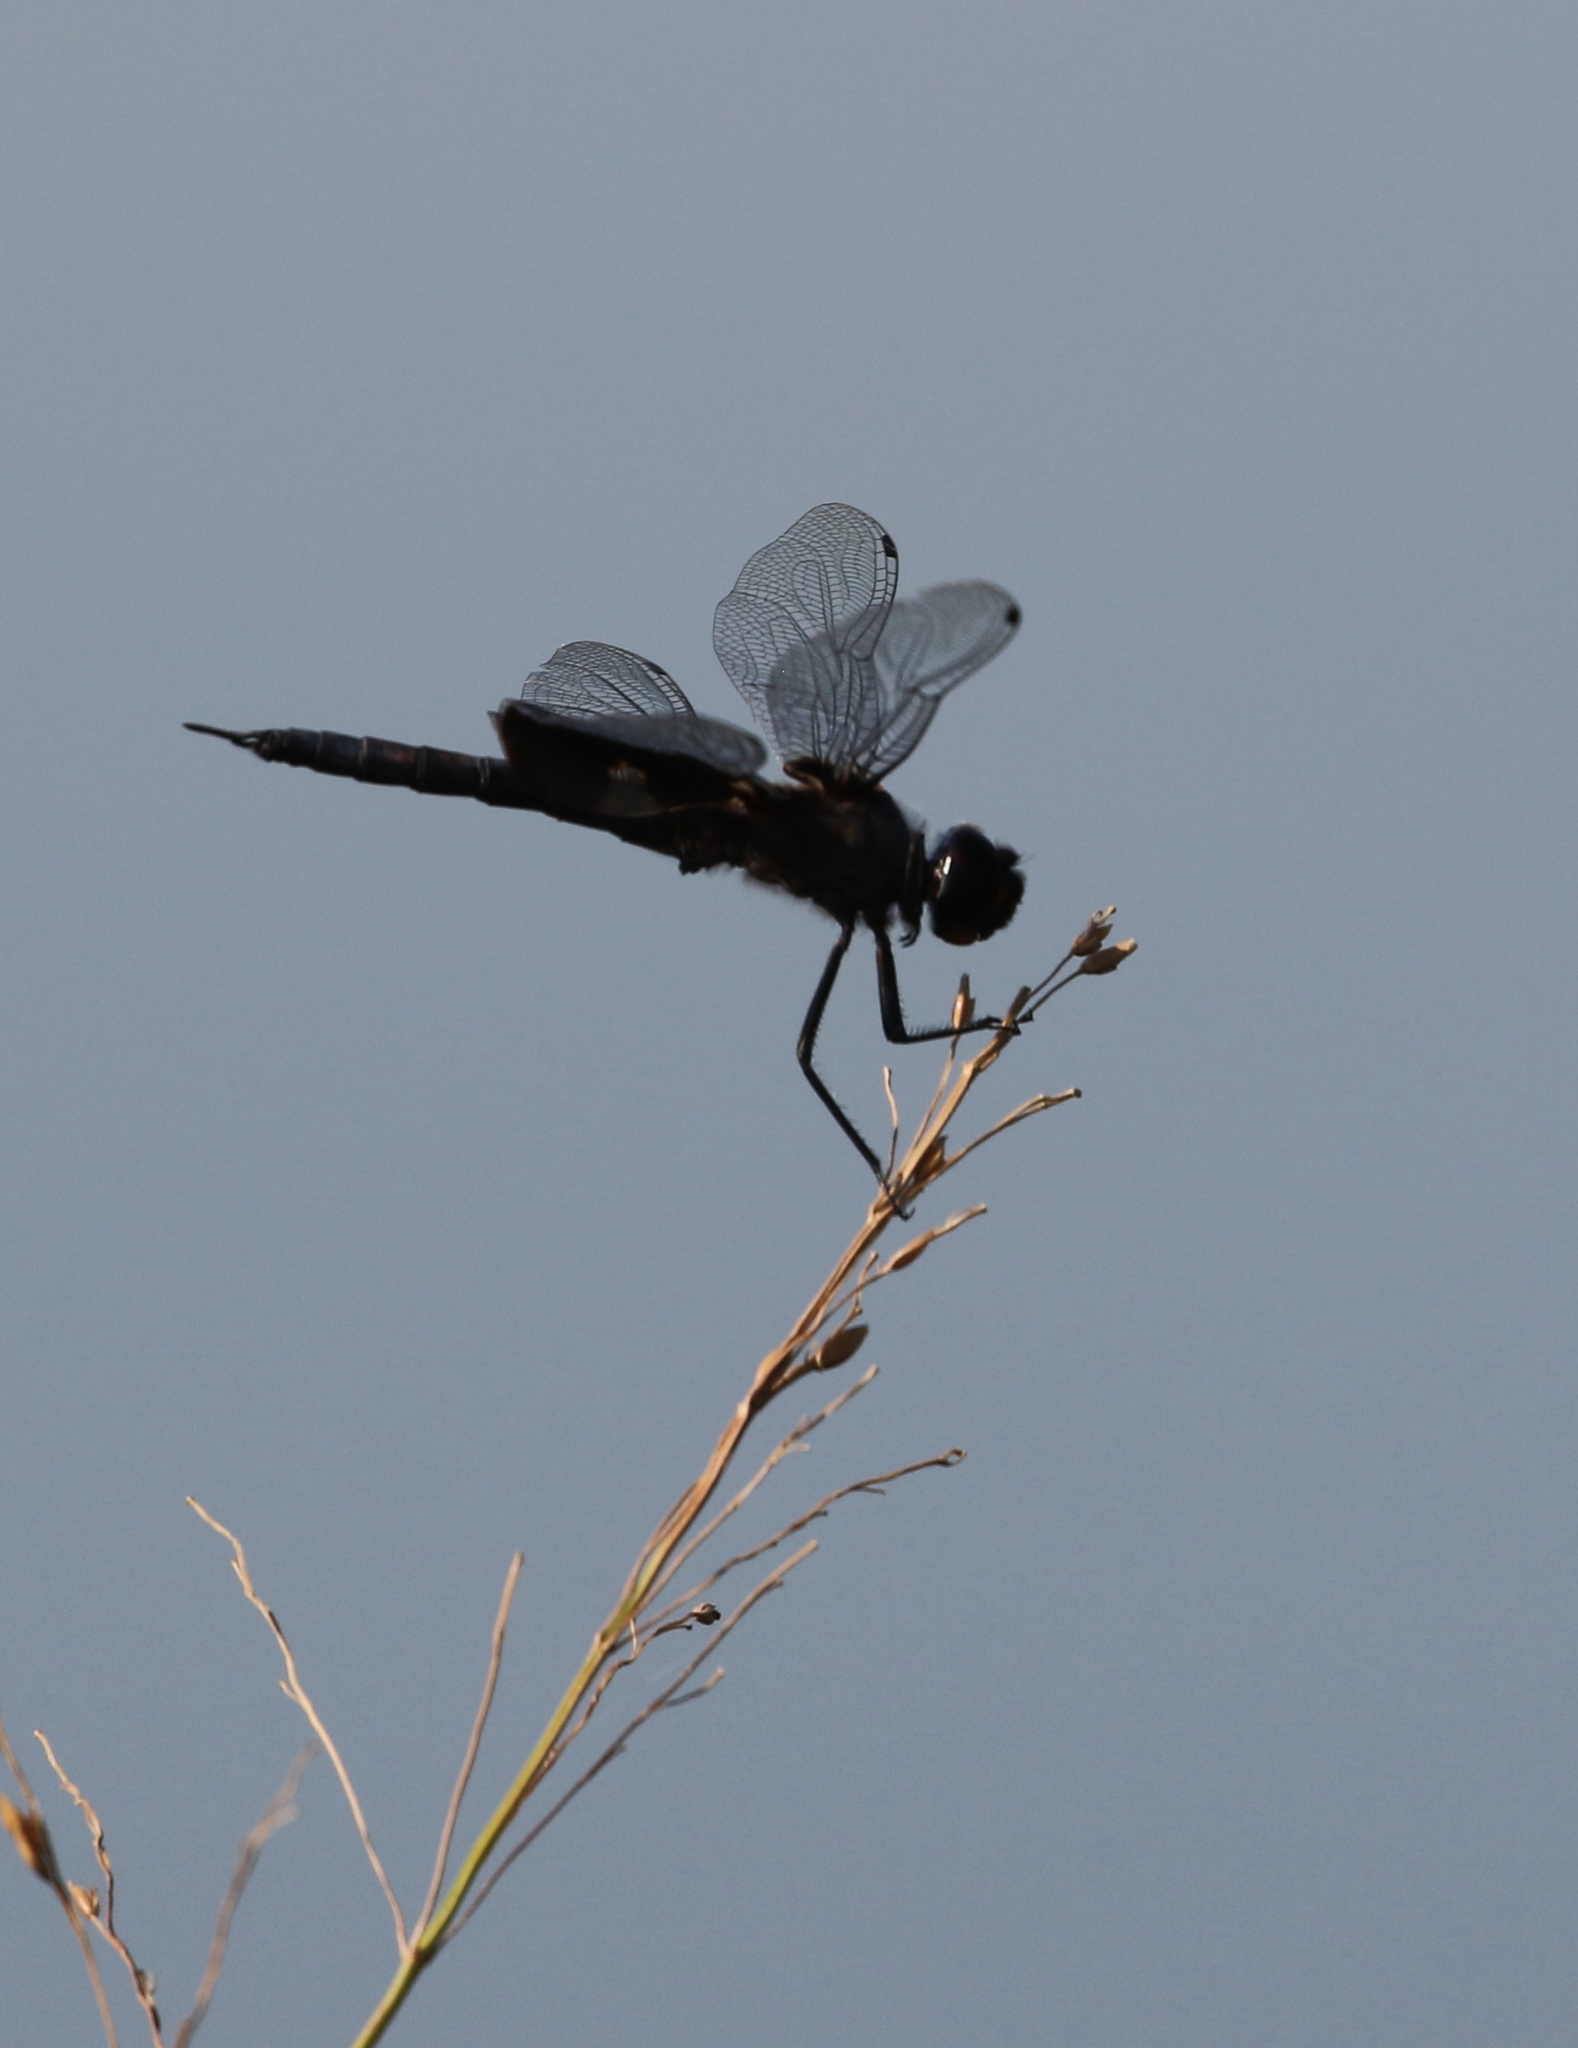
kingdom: Animalia
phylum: Arthropoda
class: Insecta
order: Odonata
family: Libellulidae
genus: Tramea
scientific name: Tramea lacerata
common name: Black saddlebags
